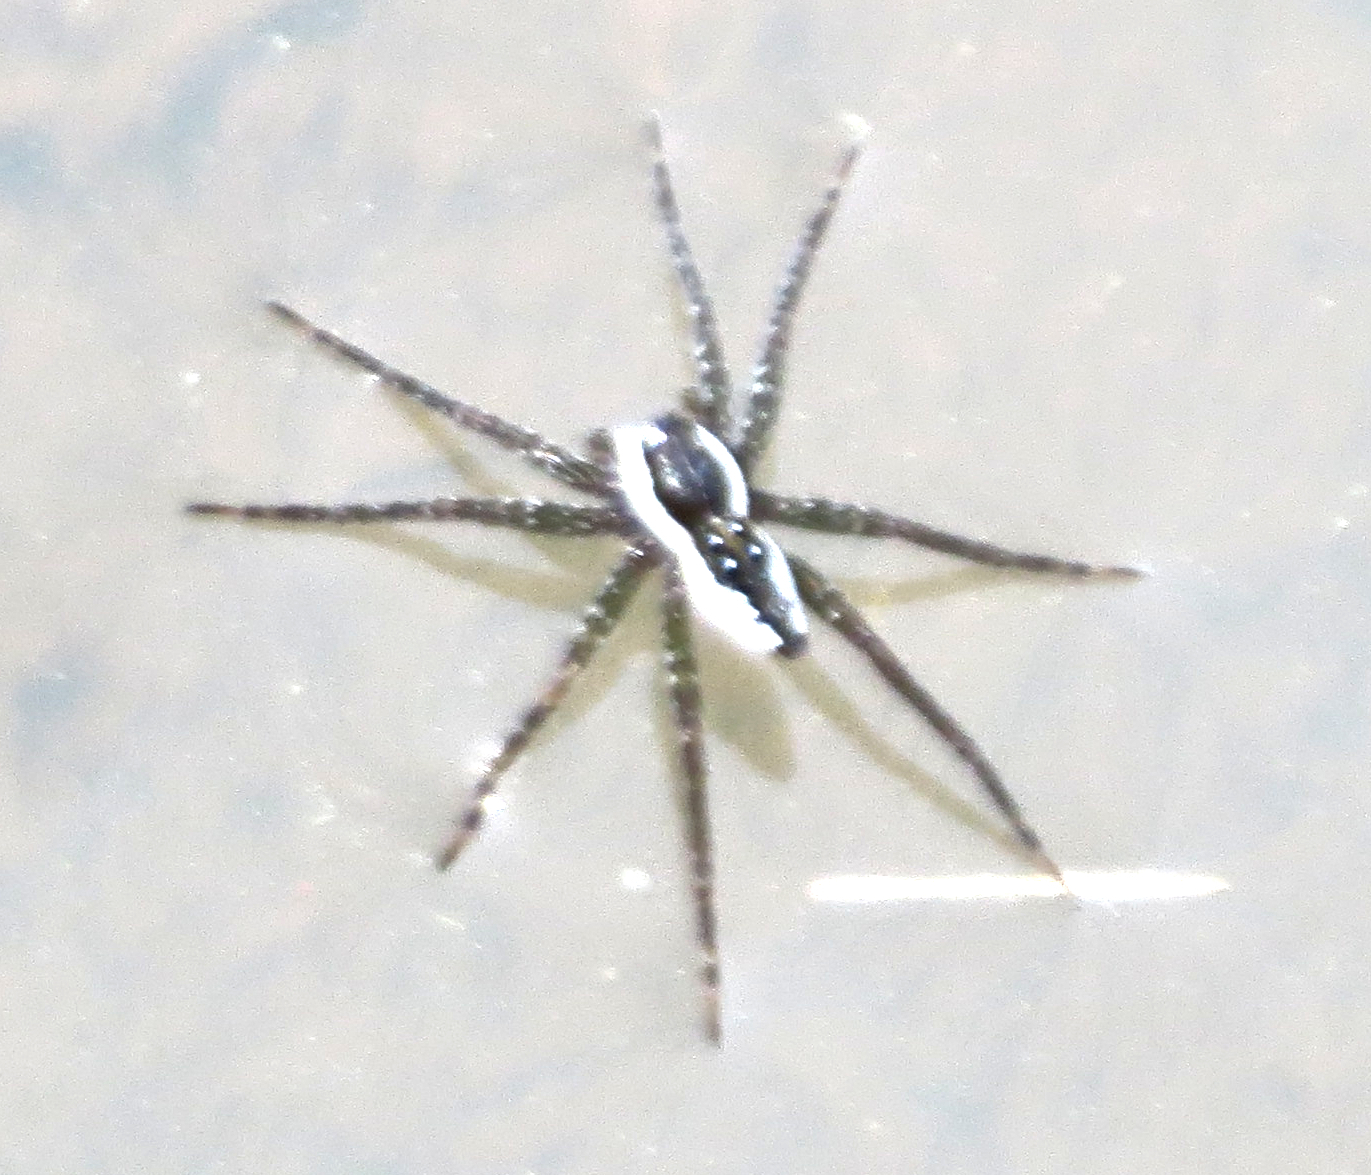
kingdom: Animalia
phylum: Arthropoda
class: Arachnida
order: Araneae
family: Pisauridae
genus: Dolomedes
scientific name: Dolomedes triton
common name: Six-spotted fishing spider
